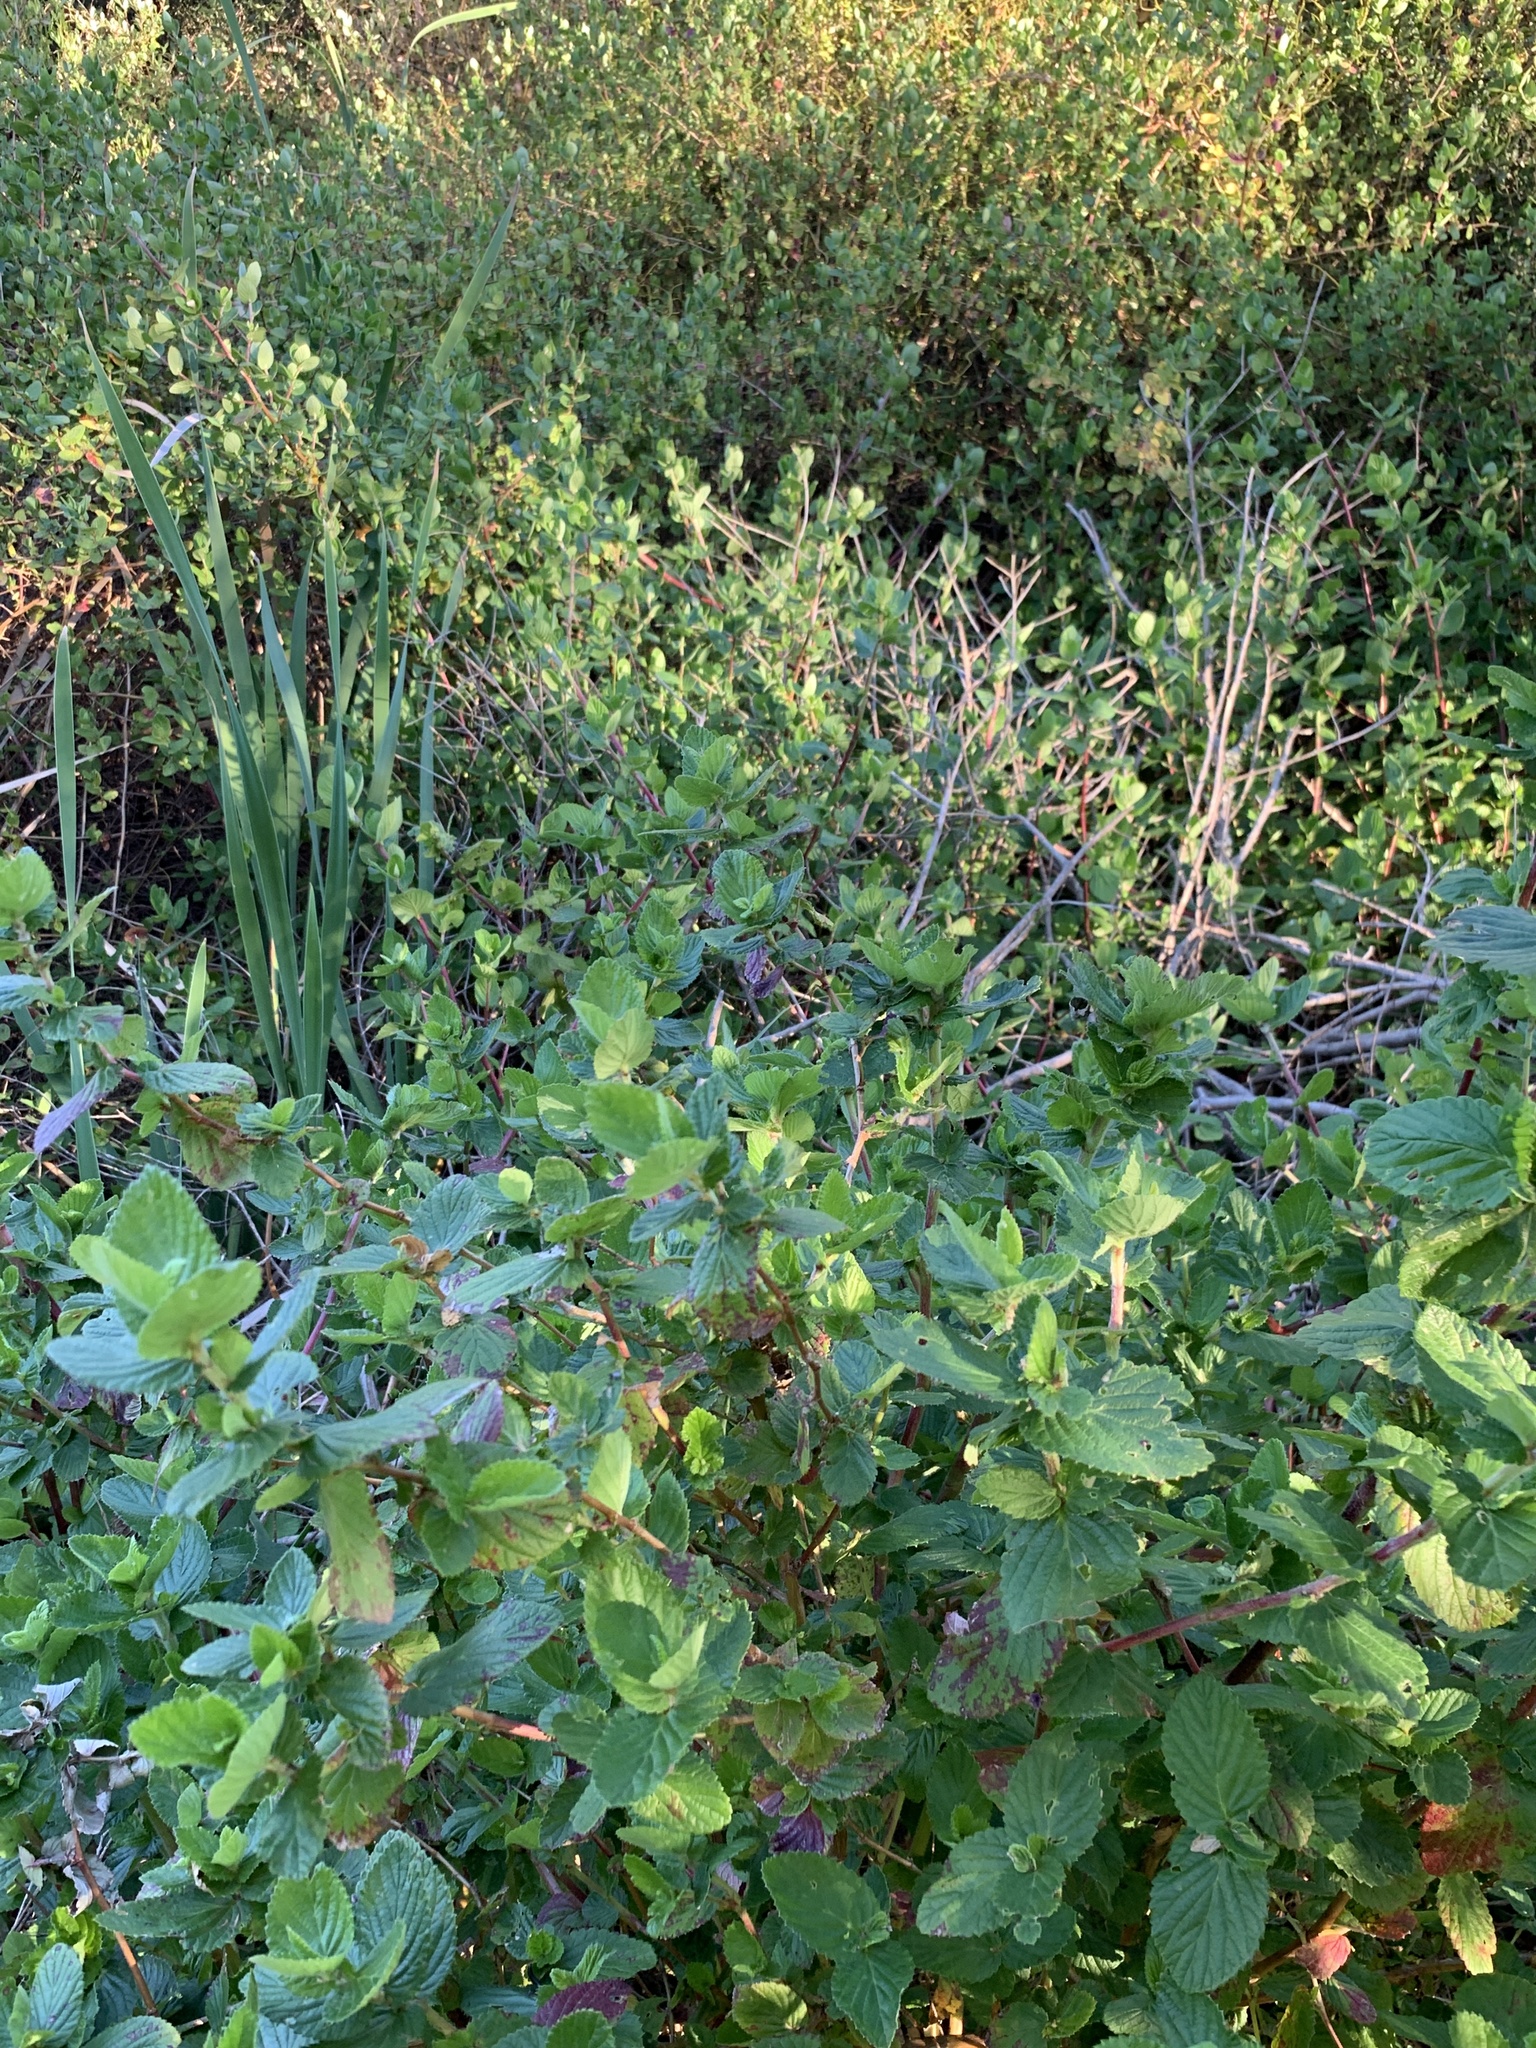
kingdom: Plantae
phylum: Tracheophyta
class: Magnoliopsida
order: Rosales
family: Rosaceae
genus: Cliffortia
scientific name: Cliffortia odorata
